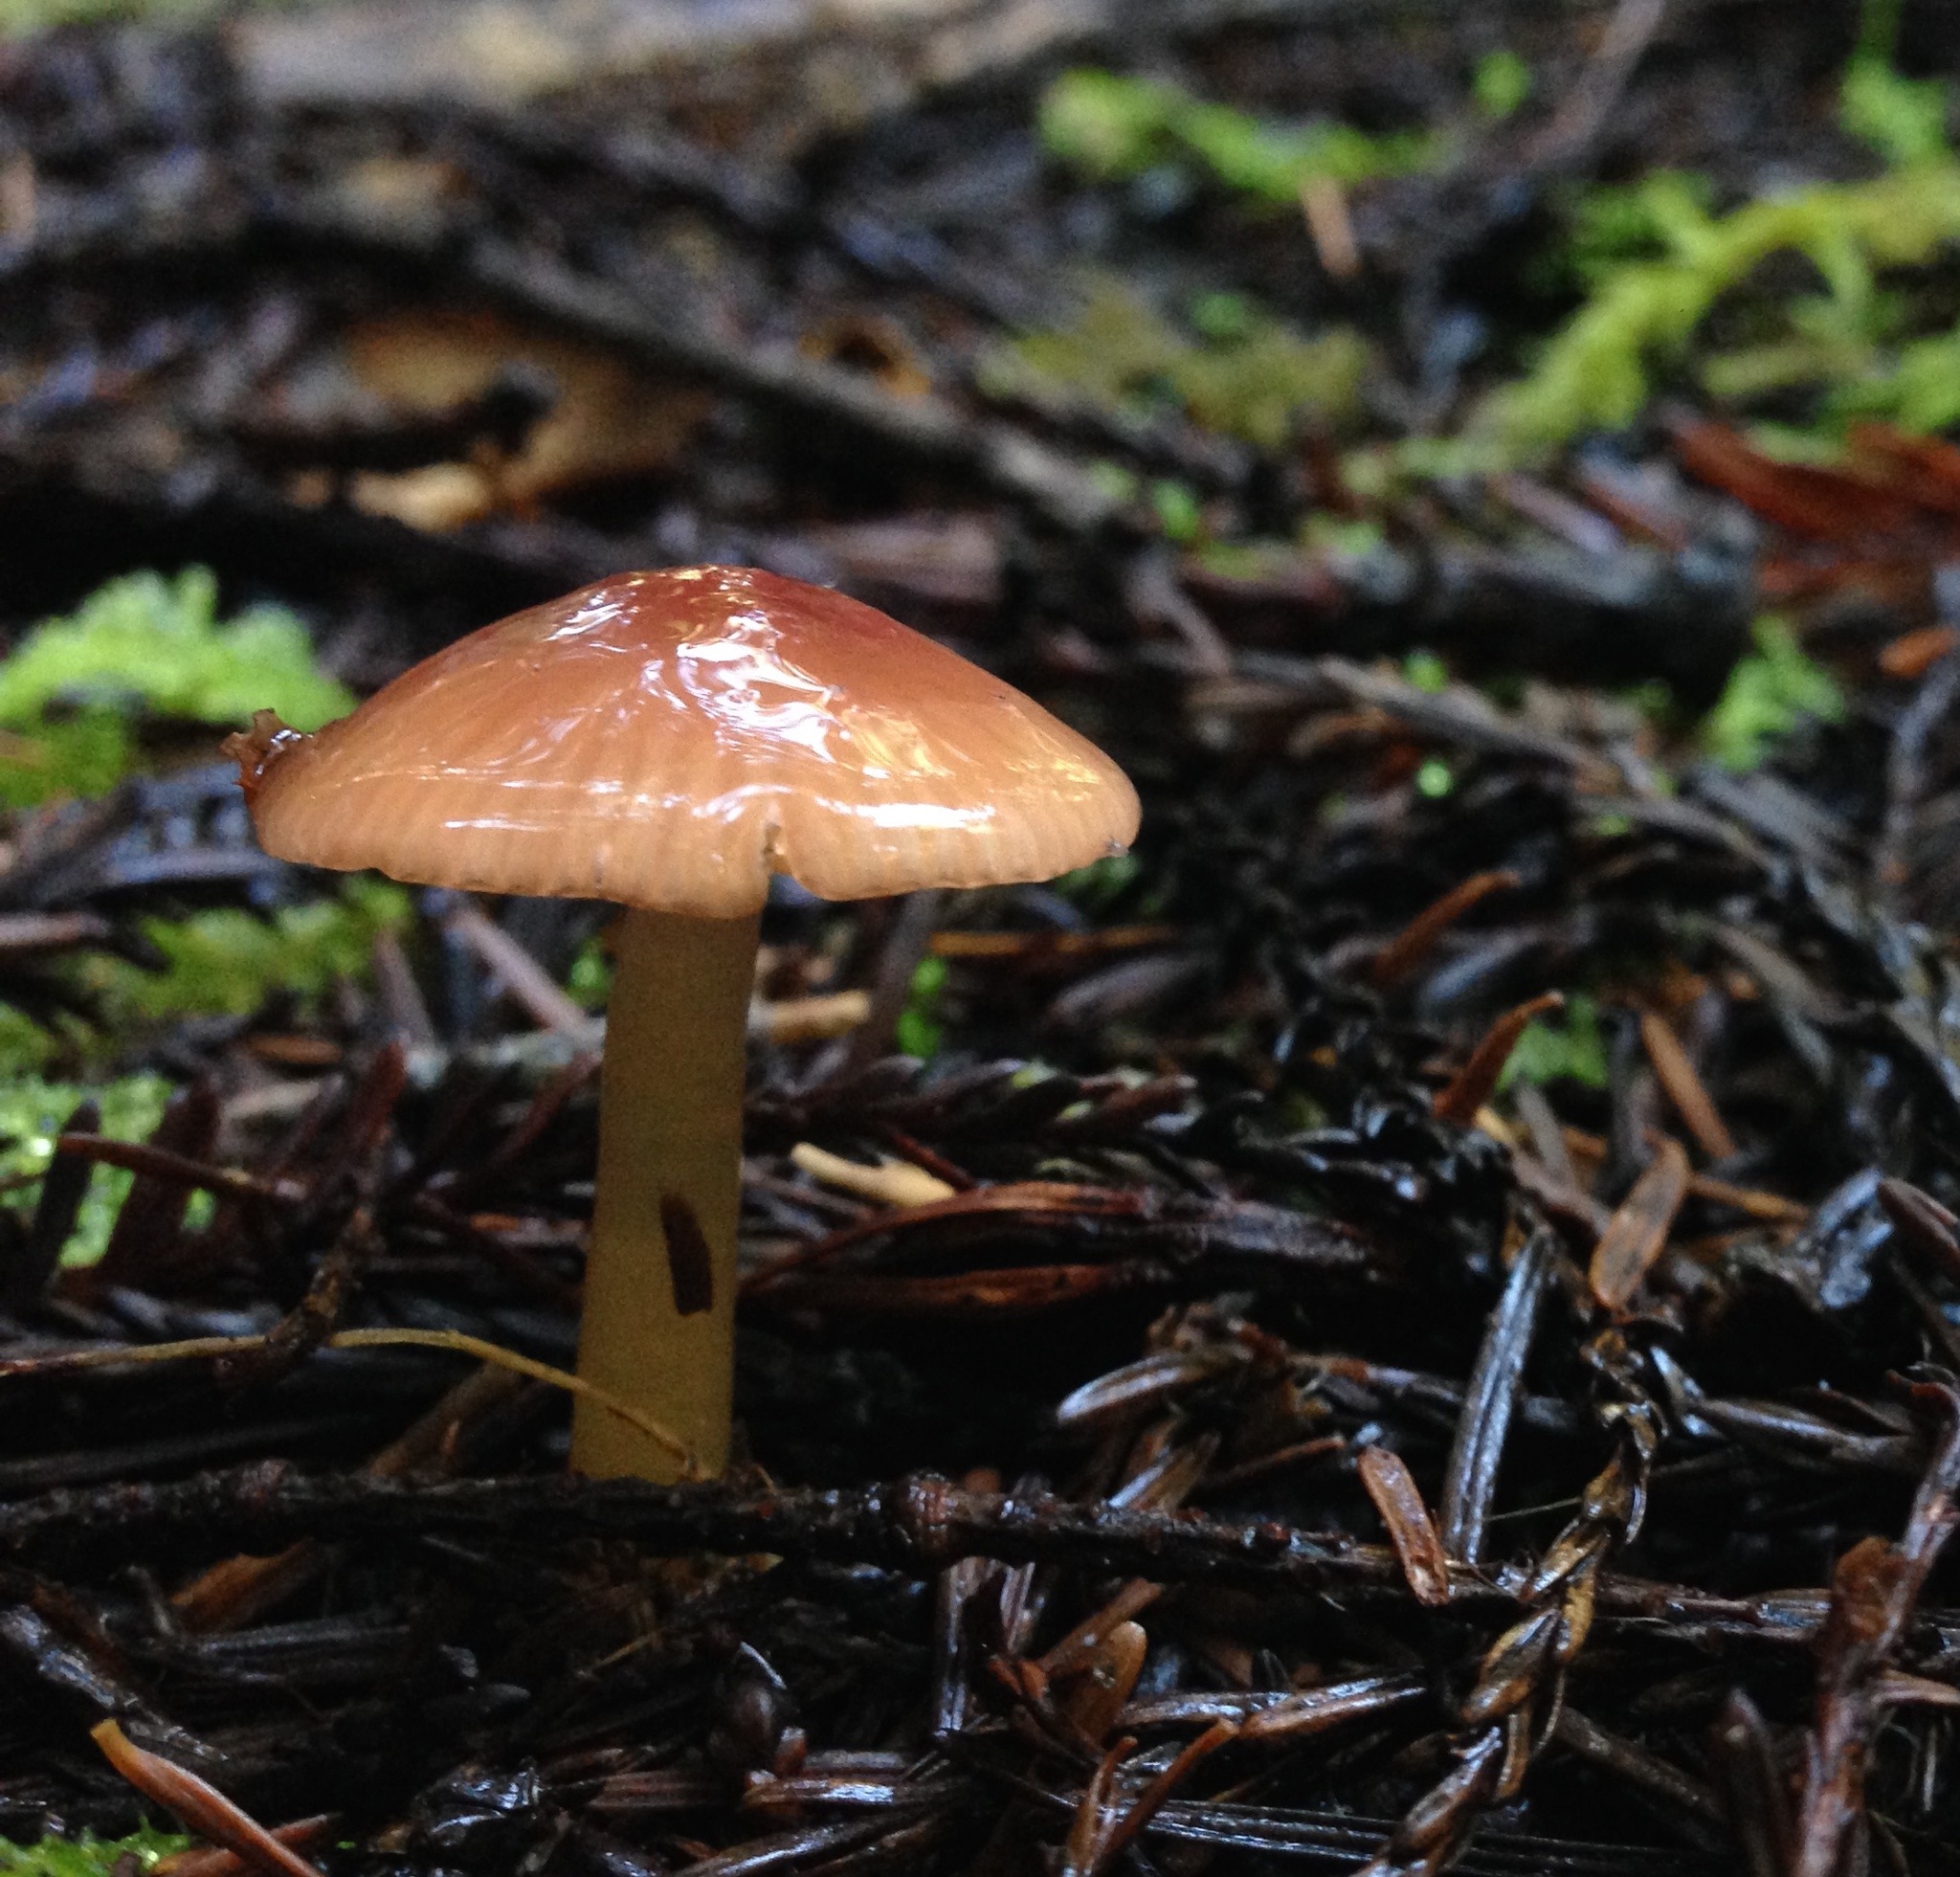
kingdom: Fungi
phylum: Basidiomycota
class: Agaricomycetes
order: Agaricales
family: Hygrophoraceae
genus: Gliophorus
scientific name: Gliophorus psittacinus
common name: Parrot wax-cap
